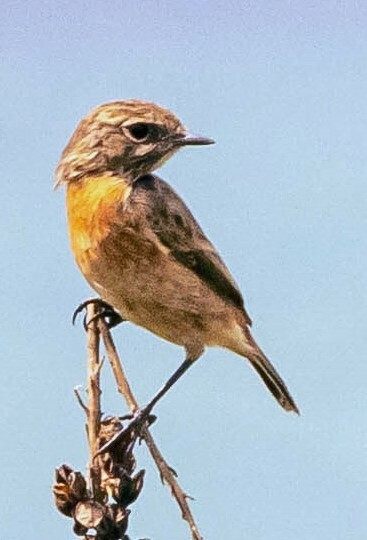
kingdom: Animalia
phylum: Chordata
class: Aves
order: Passeriformes
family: Muscicapidae
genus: Saxicola
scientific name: Saxicola rubicola
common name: European stonechat
